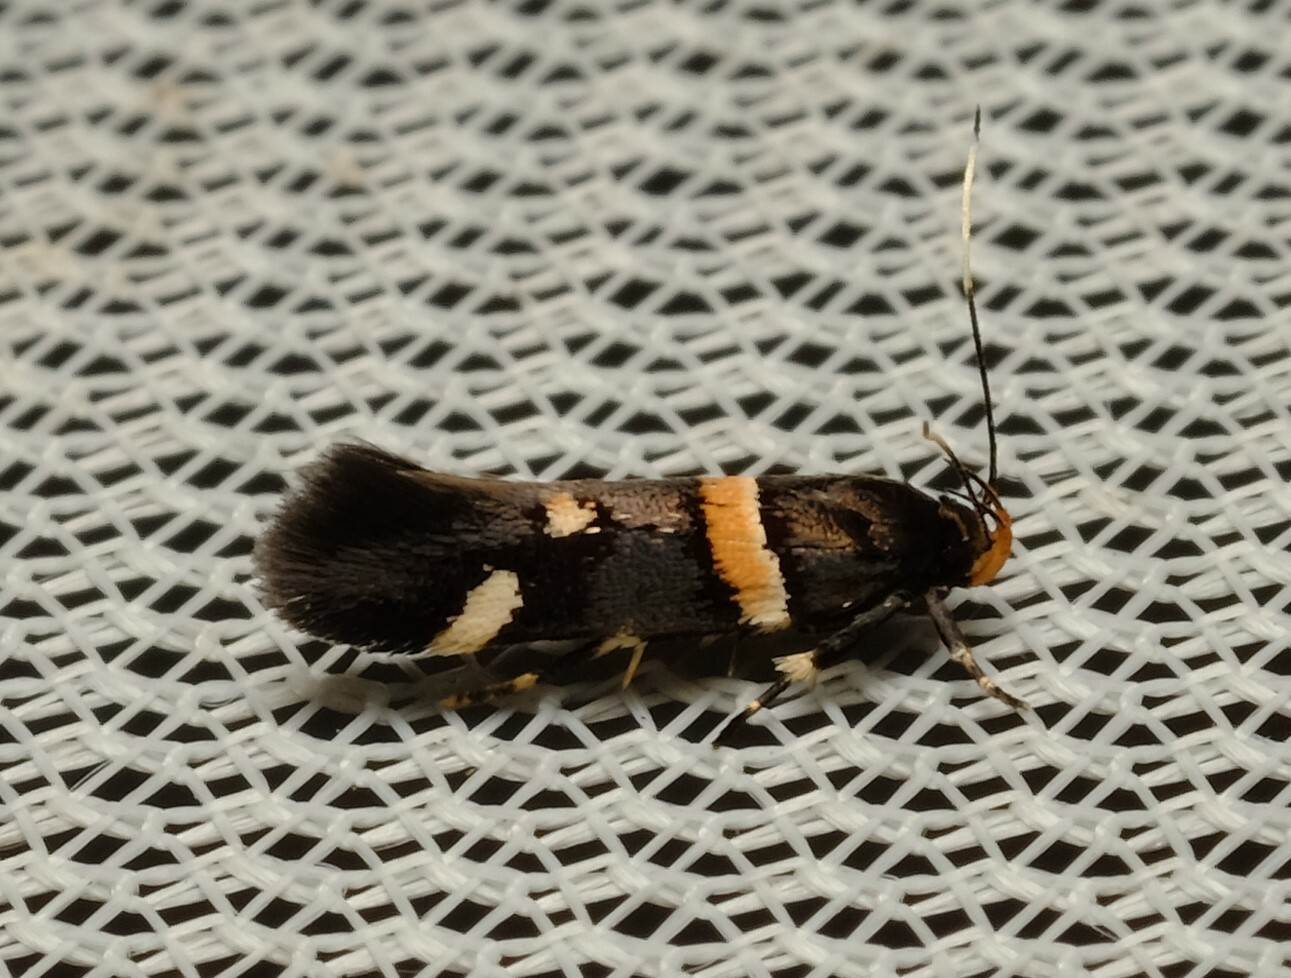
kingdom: Animalia
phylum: Arthropoda
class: Insecta
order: Lepidoptera
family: Cosmopterigidae
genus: Macrobathra
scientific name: Macrobathra alternatella
